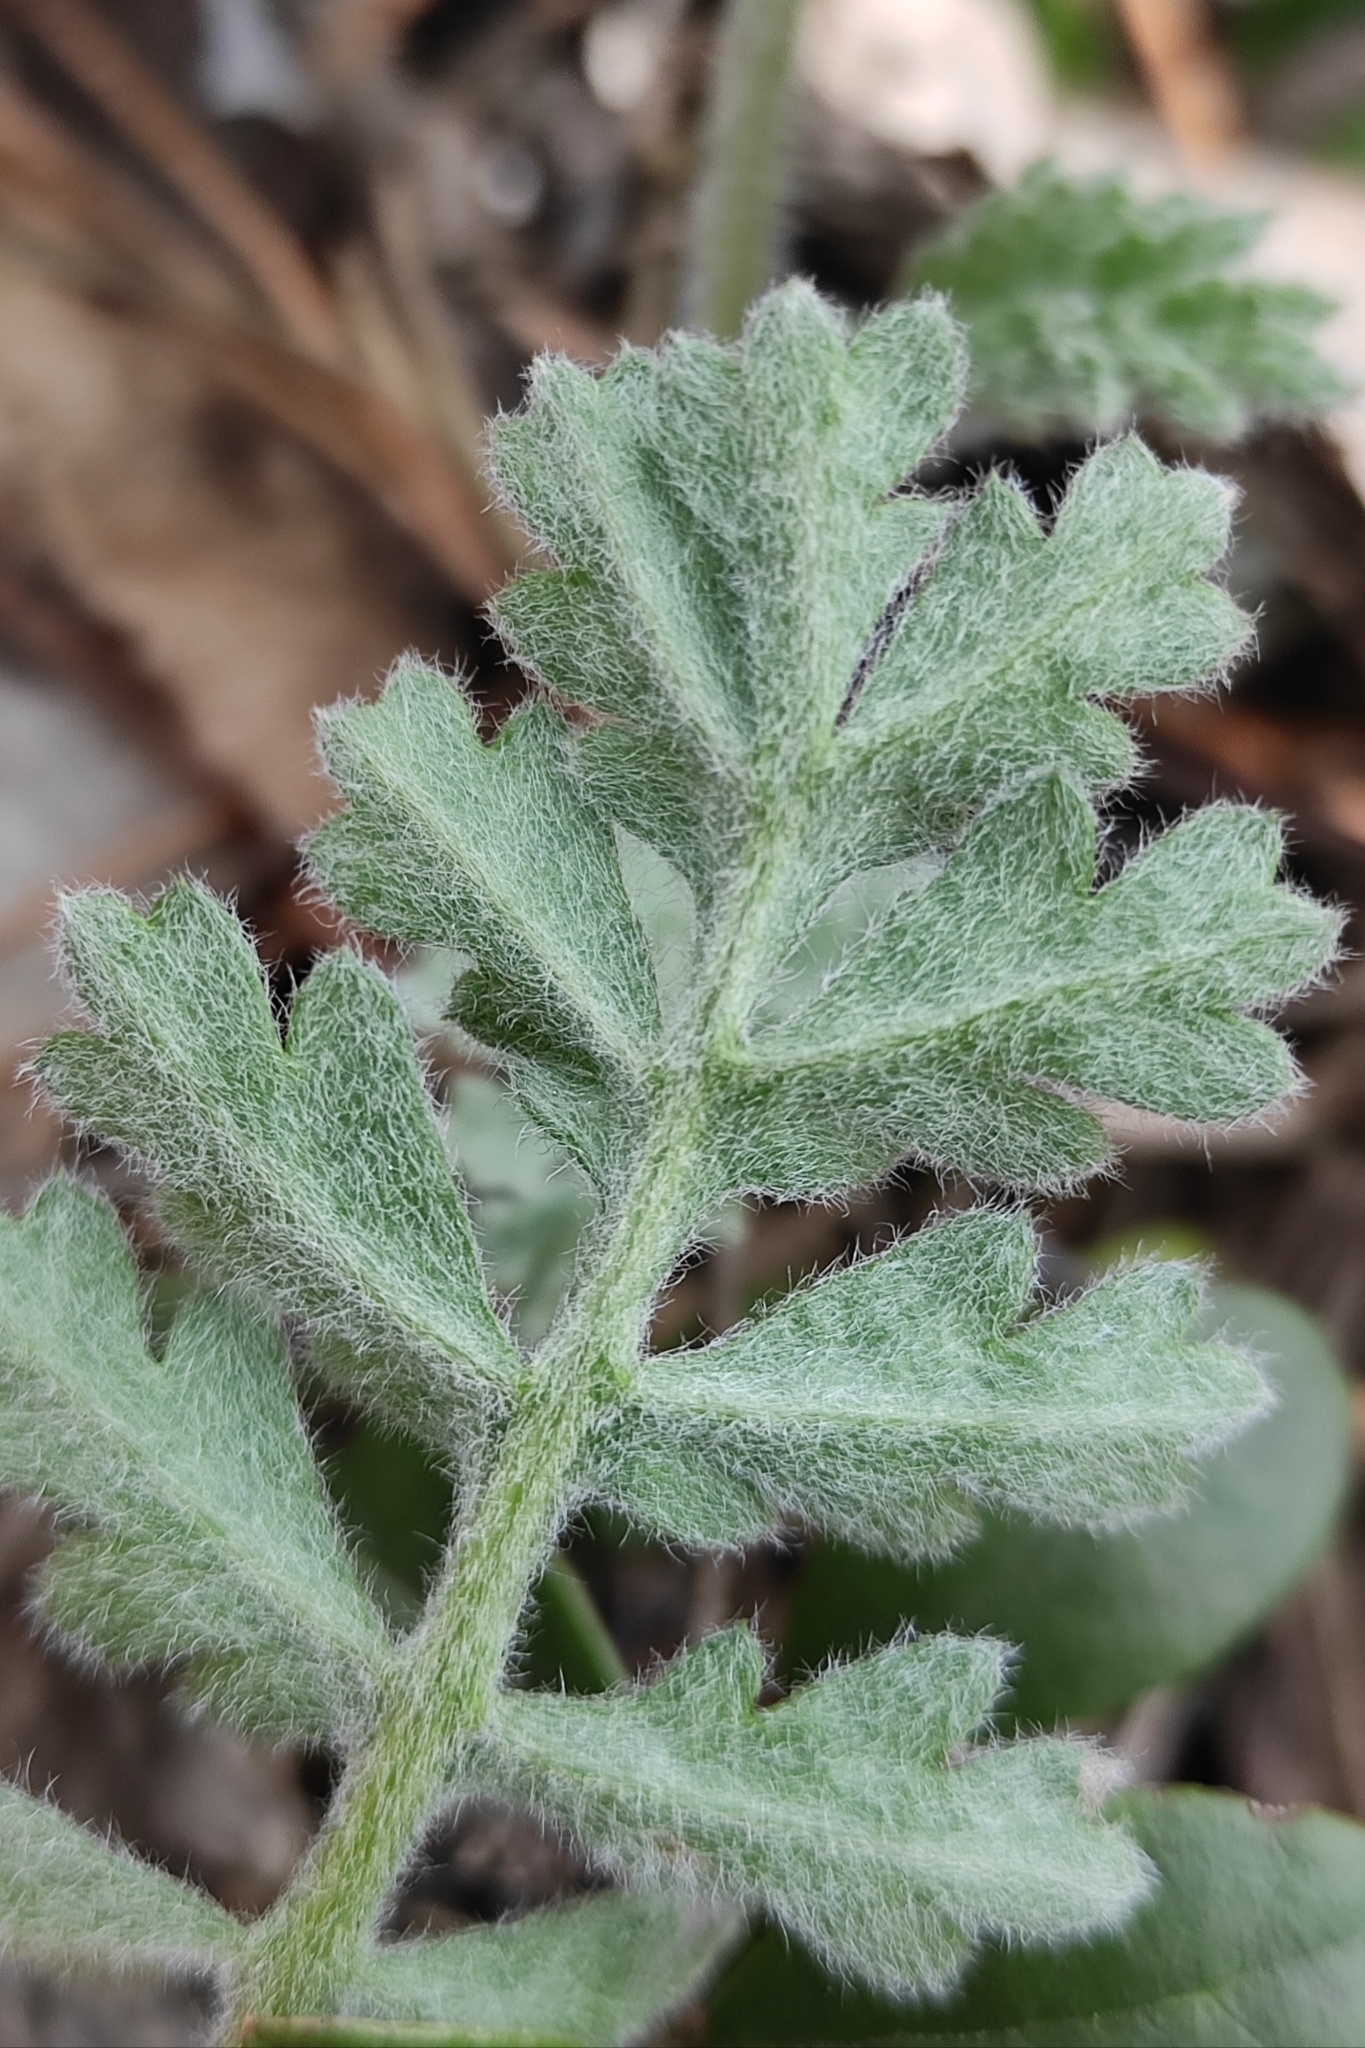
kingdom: Plantae
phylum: Tracheophyta
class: Magnoliopsida
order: Asterales
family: Asteraceae
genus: Artemisia
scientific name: Artemisia tanacetifolia
